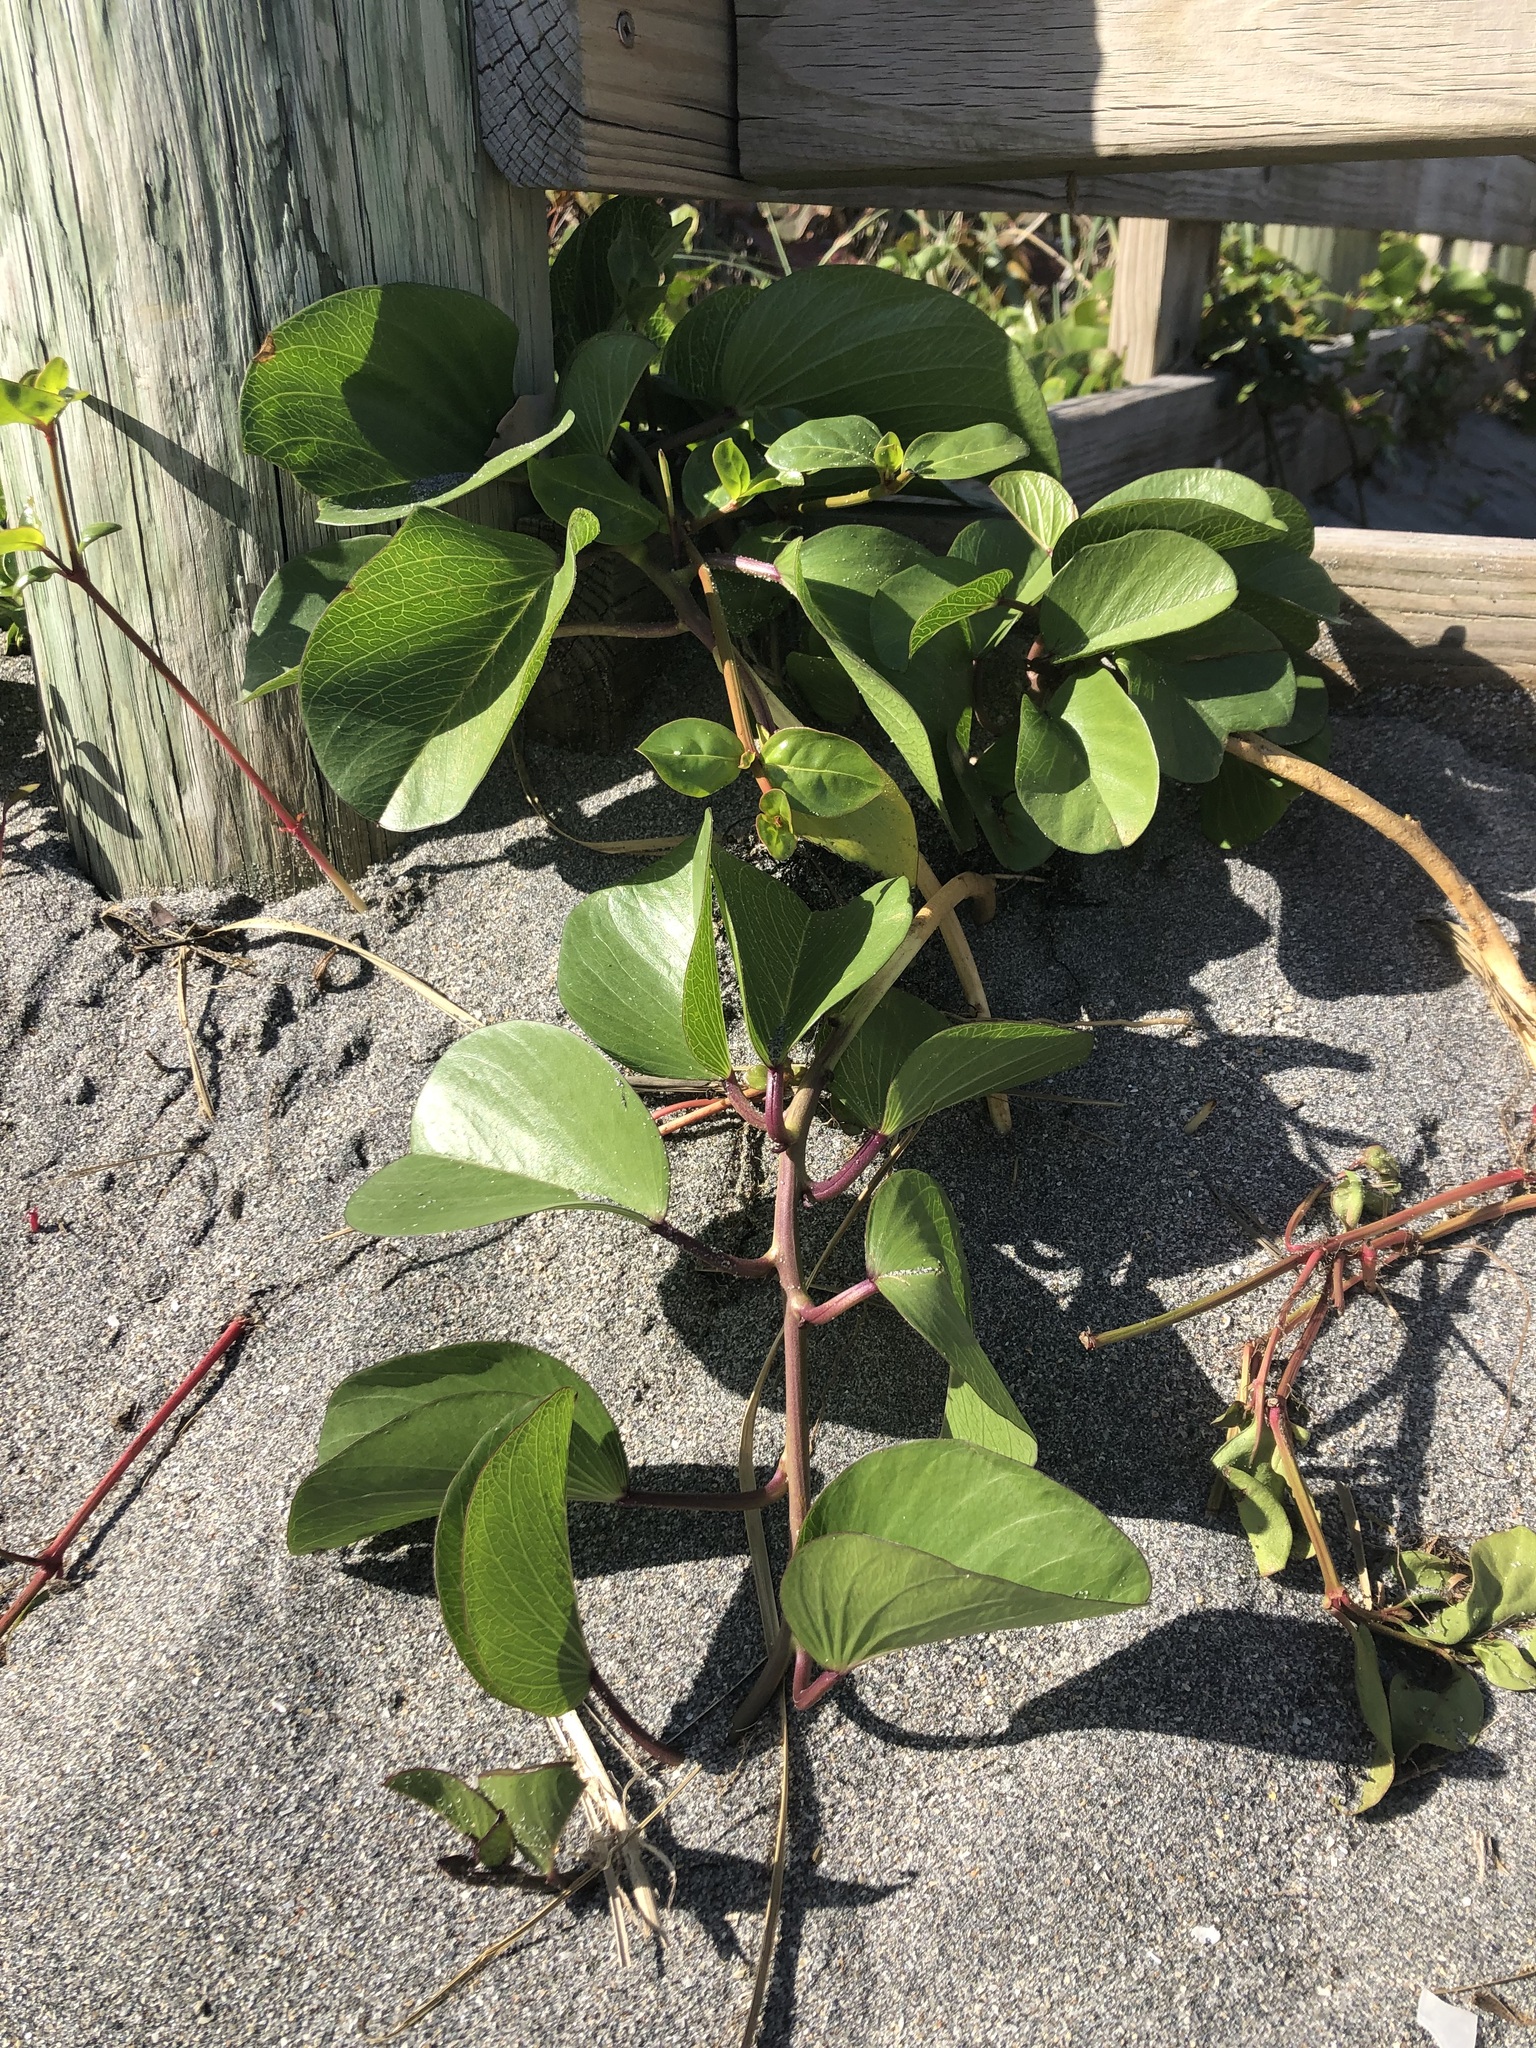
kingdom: Plantae
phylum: Tracheophyta
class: Magnoliopsida
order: Solanales
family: Convolvulaceae
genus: Ipomoea
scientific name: Ipomoea pes-caprae
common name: Beach morning glory
